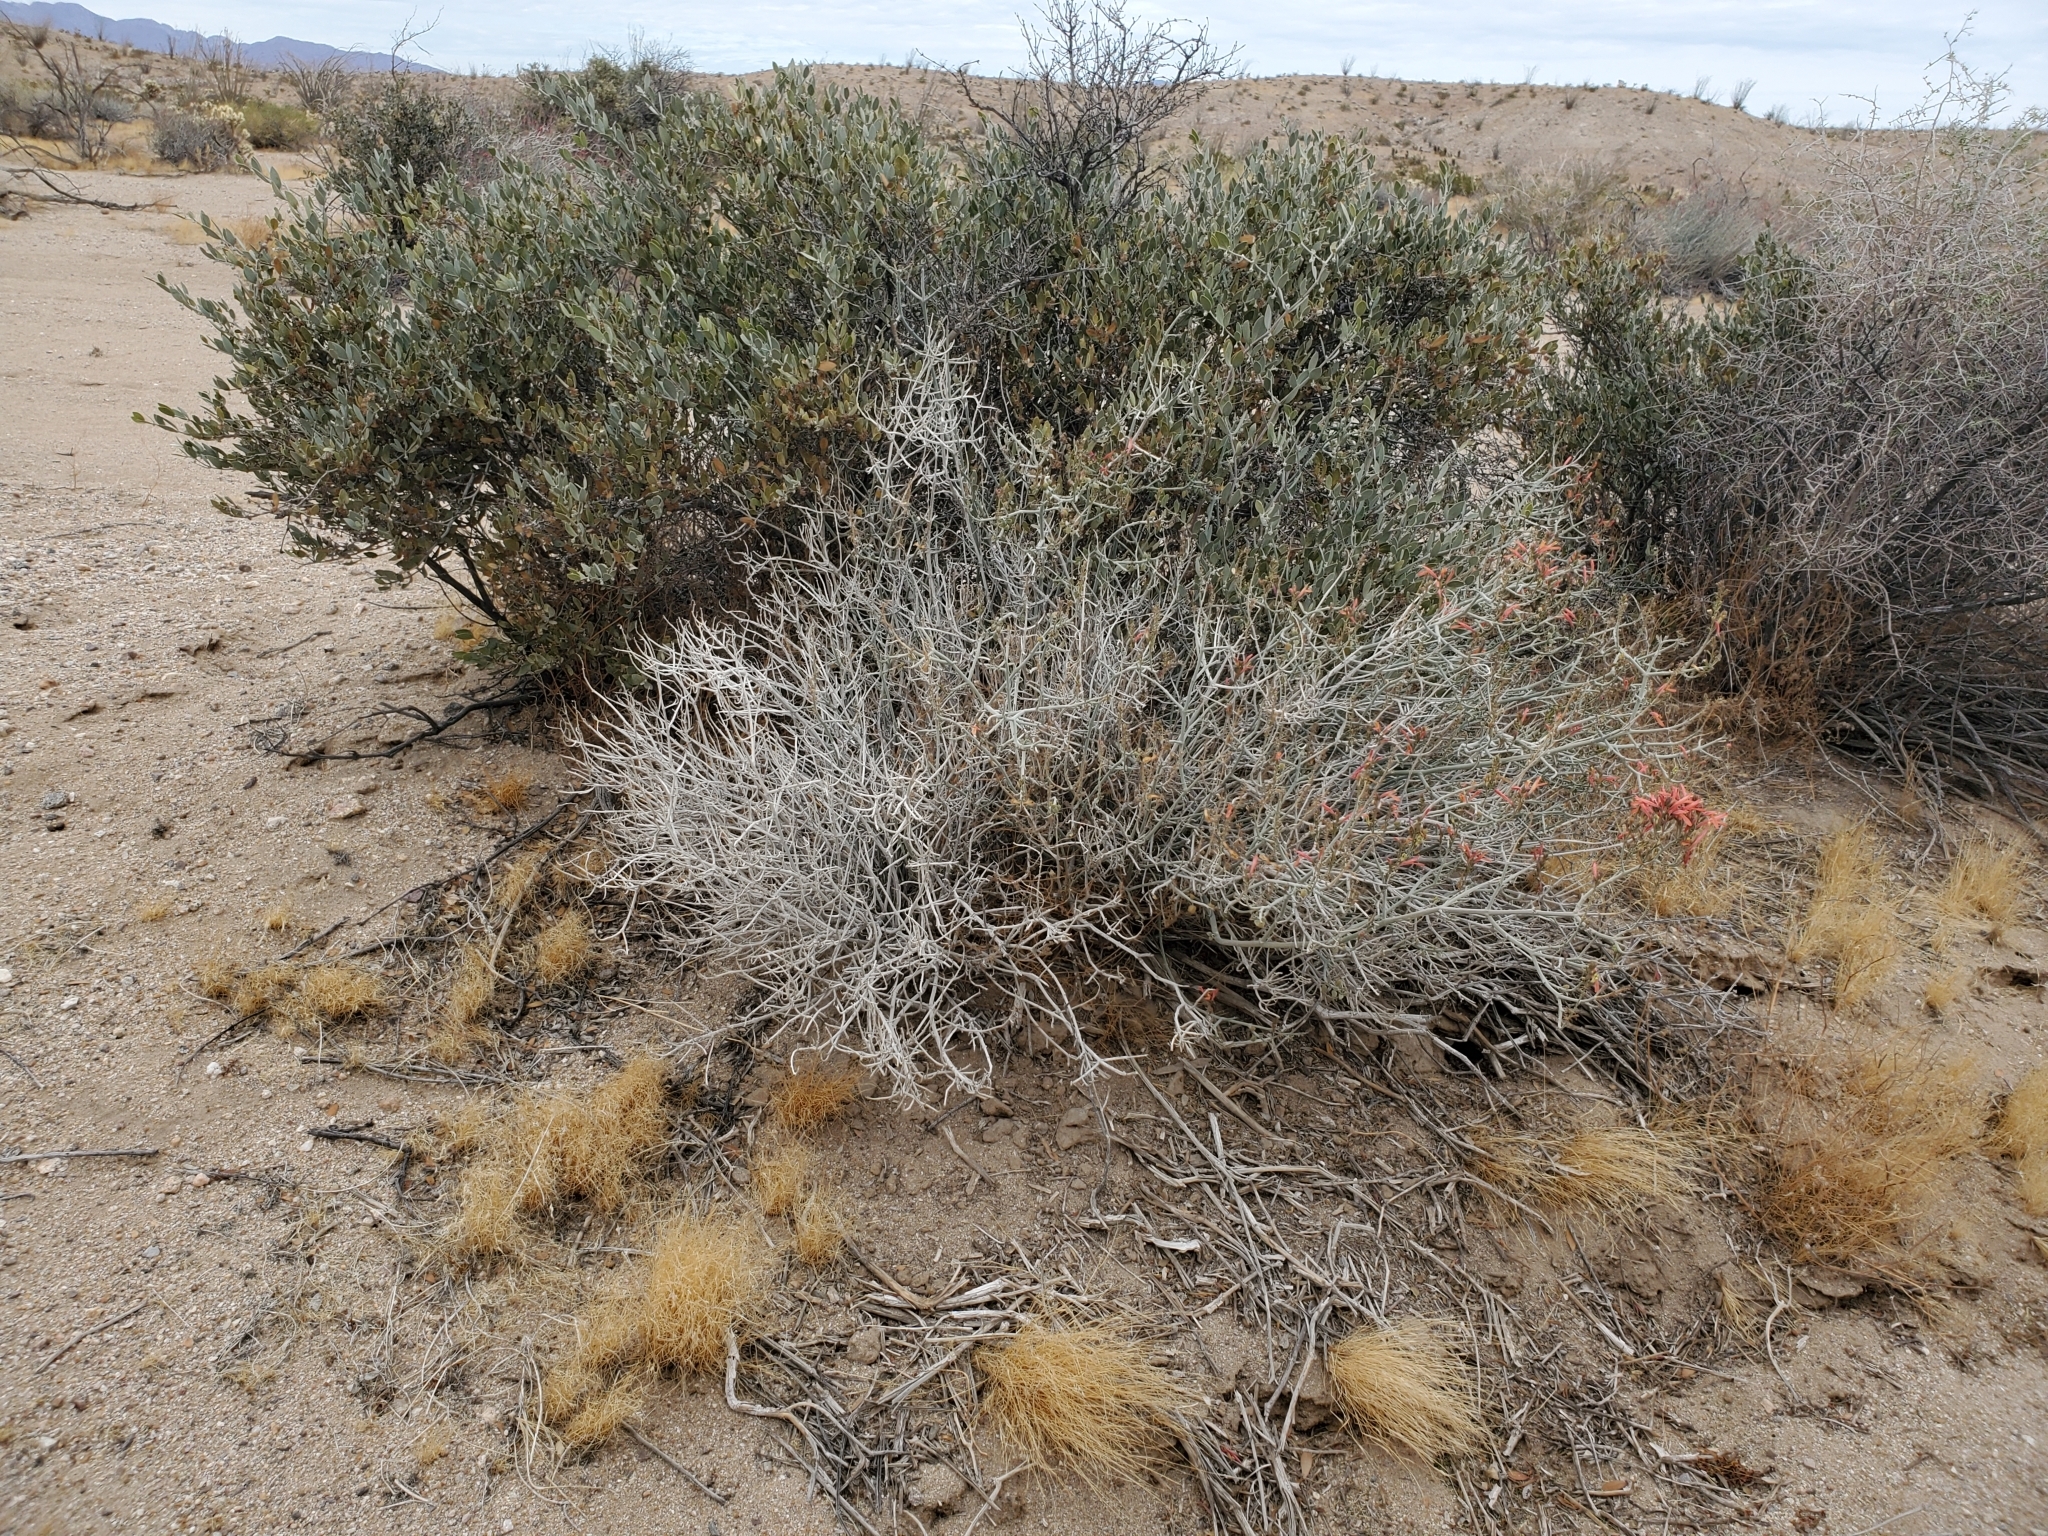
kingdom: Plantae
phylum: Tracheophyta
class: Magnoliopsida
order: Lamiales
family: Acanthaceae
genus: Justicia
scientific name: Justicia californica
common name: Chuparosa-honeysuckle
